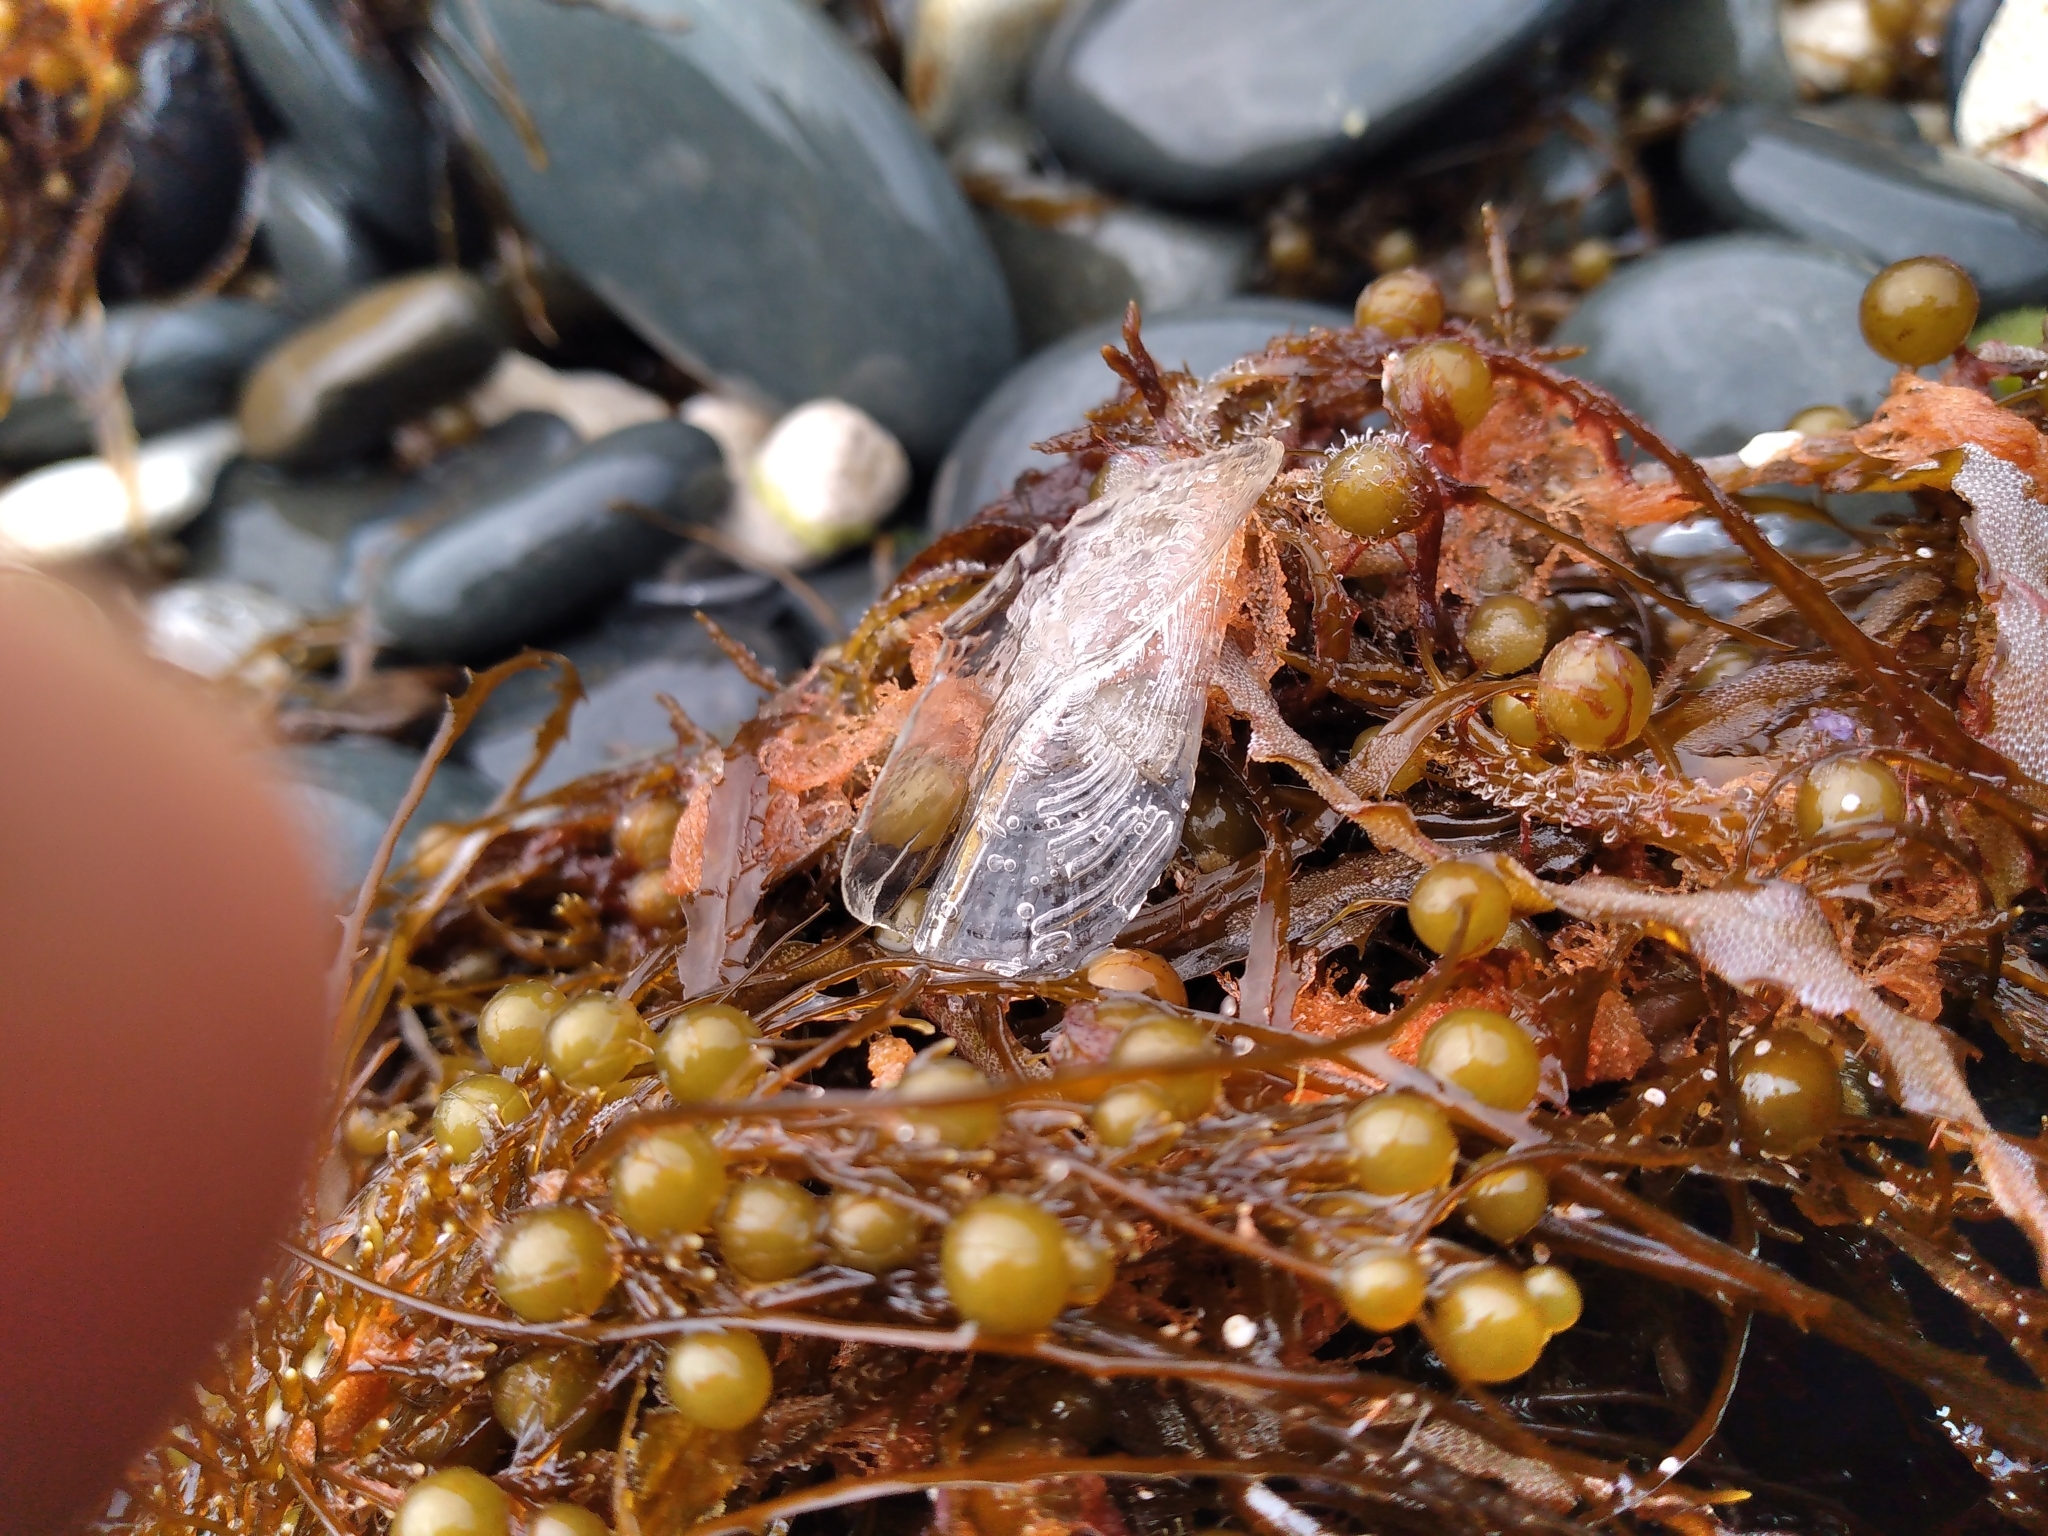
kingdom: Animalia
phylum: Cnidaria
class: Hydrozoa
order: Anthoathecata
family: Porpitidae
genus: Velella
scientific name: Velella velella
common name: By-the-wind-sailor
